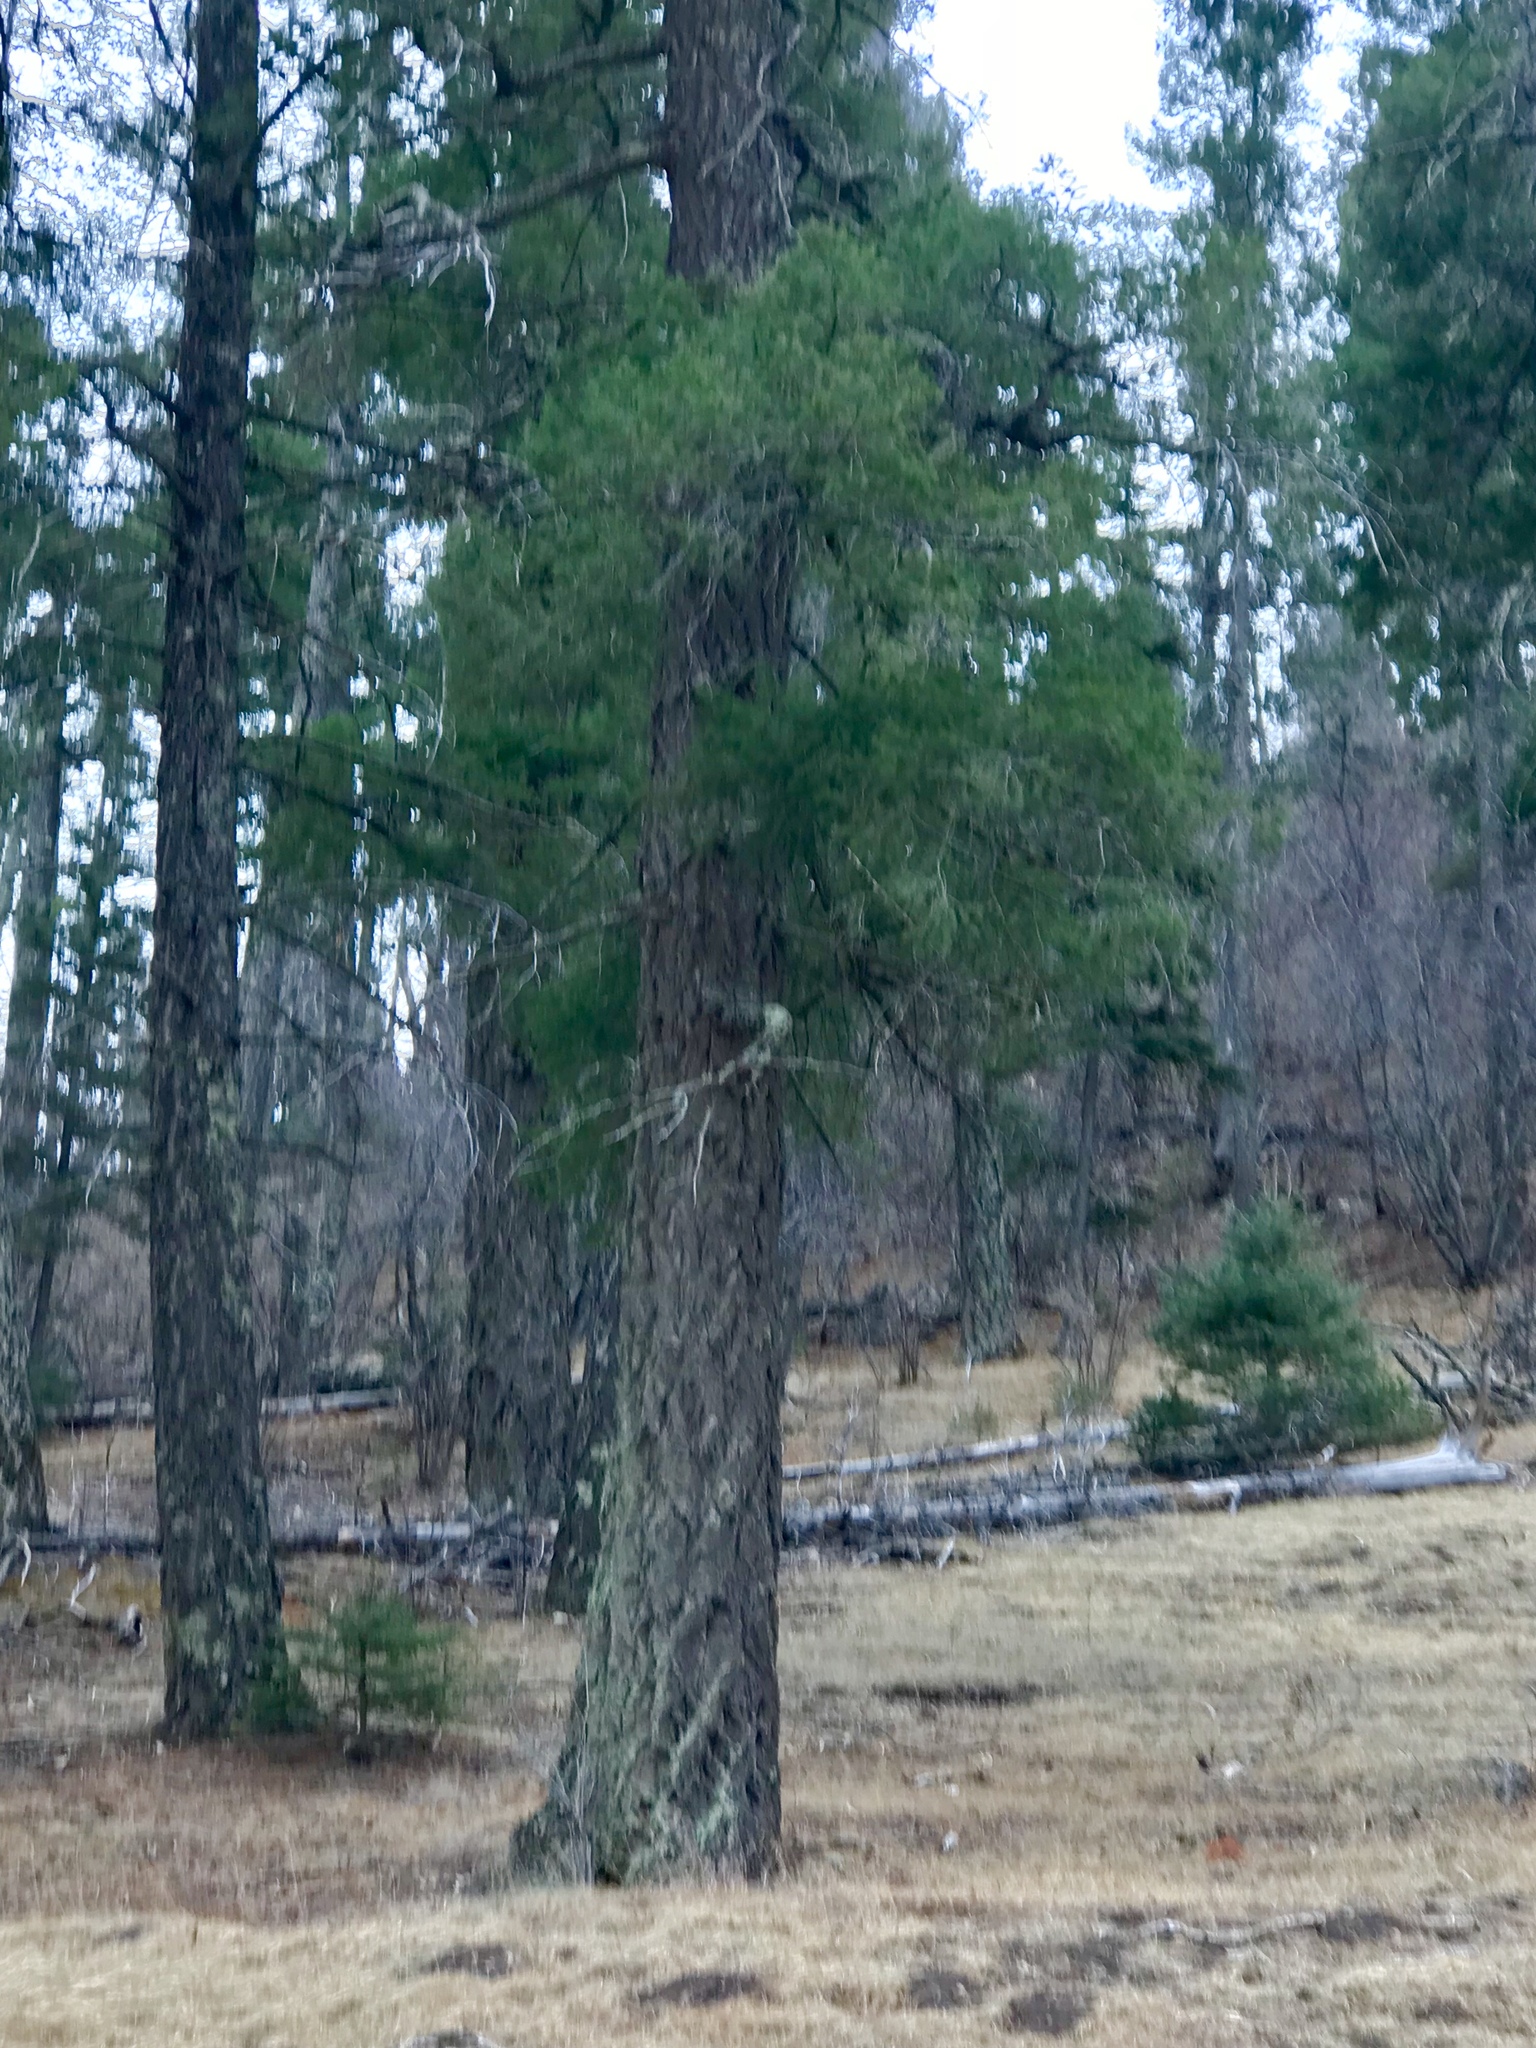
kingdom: Plantae
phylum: Tracheophyta
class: Pinopsida
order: Pinales
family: Pinaceae
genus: Pseudotsuga
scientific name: Pseudotsuga menziesii
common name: Douglas fir
